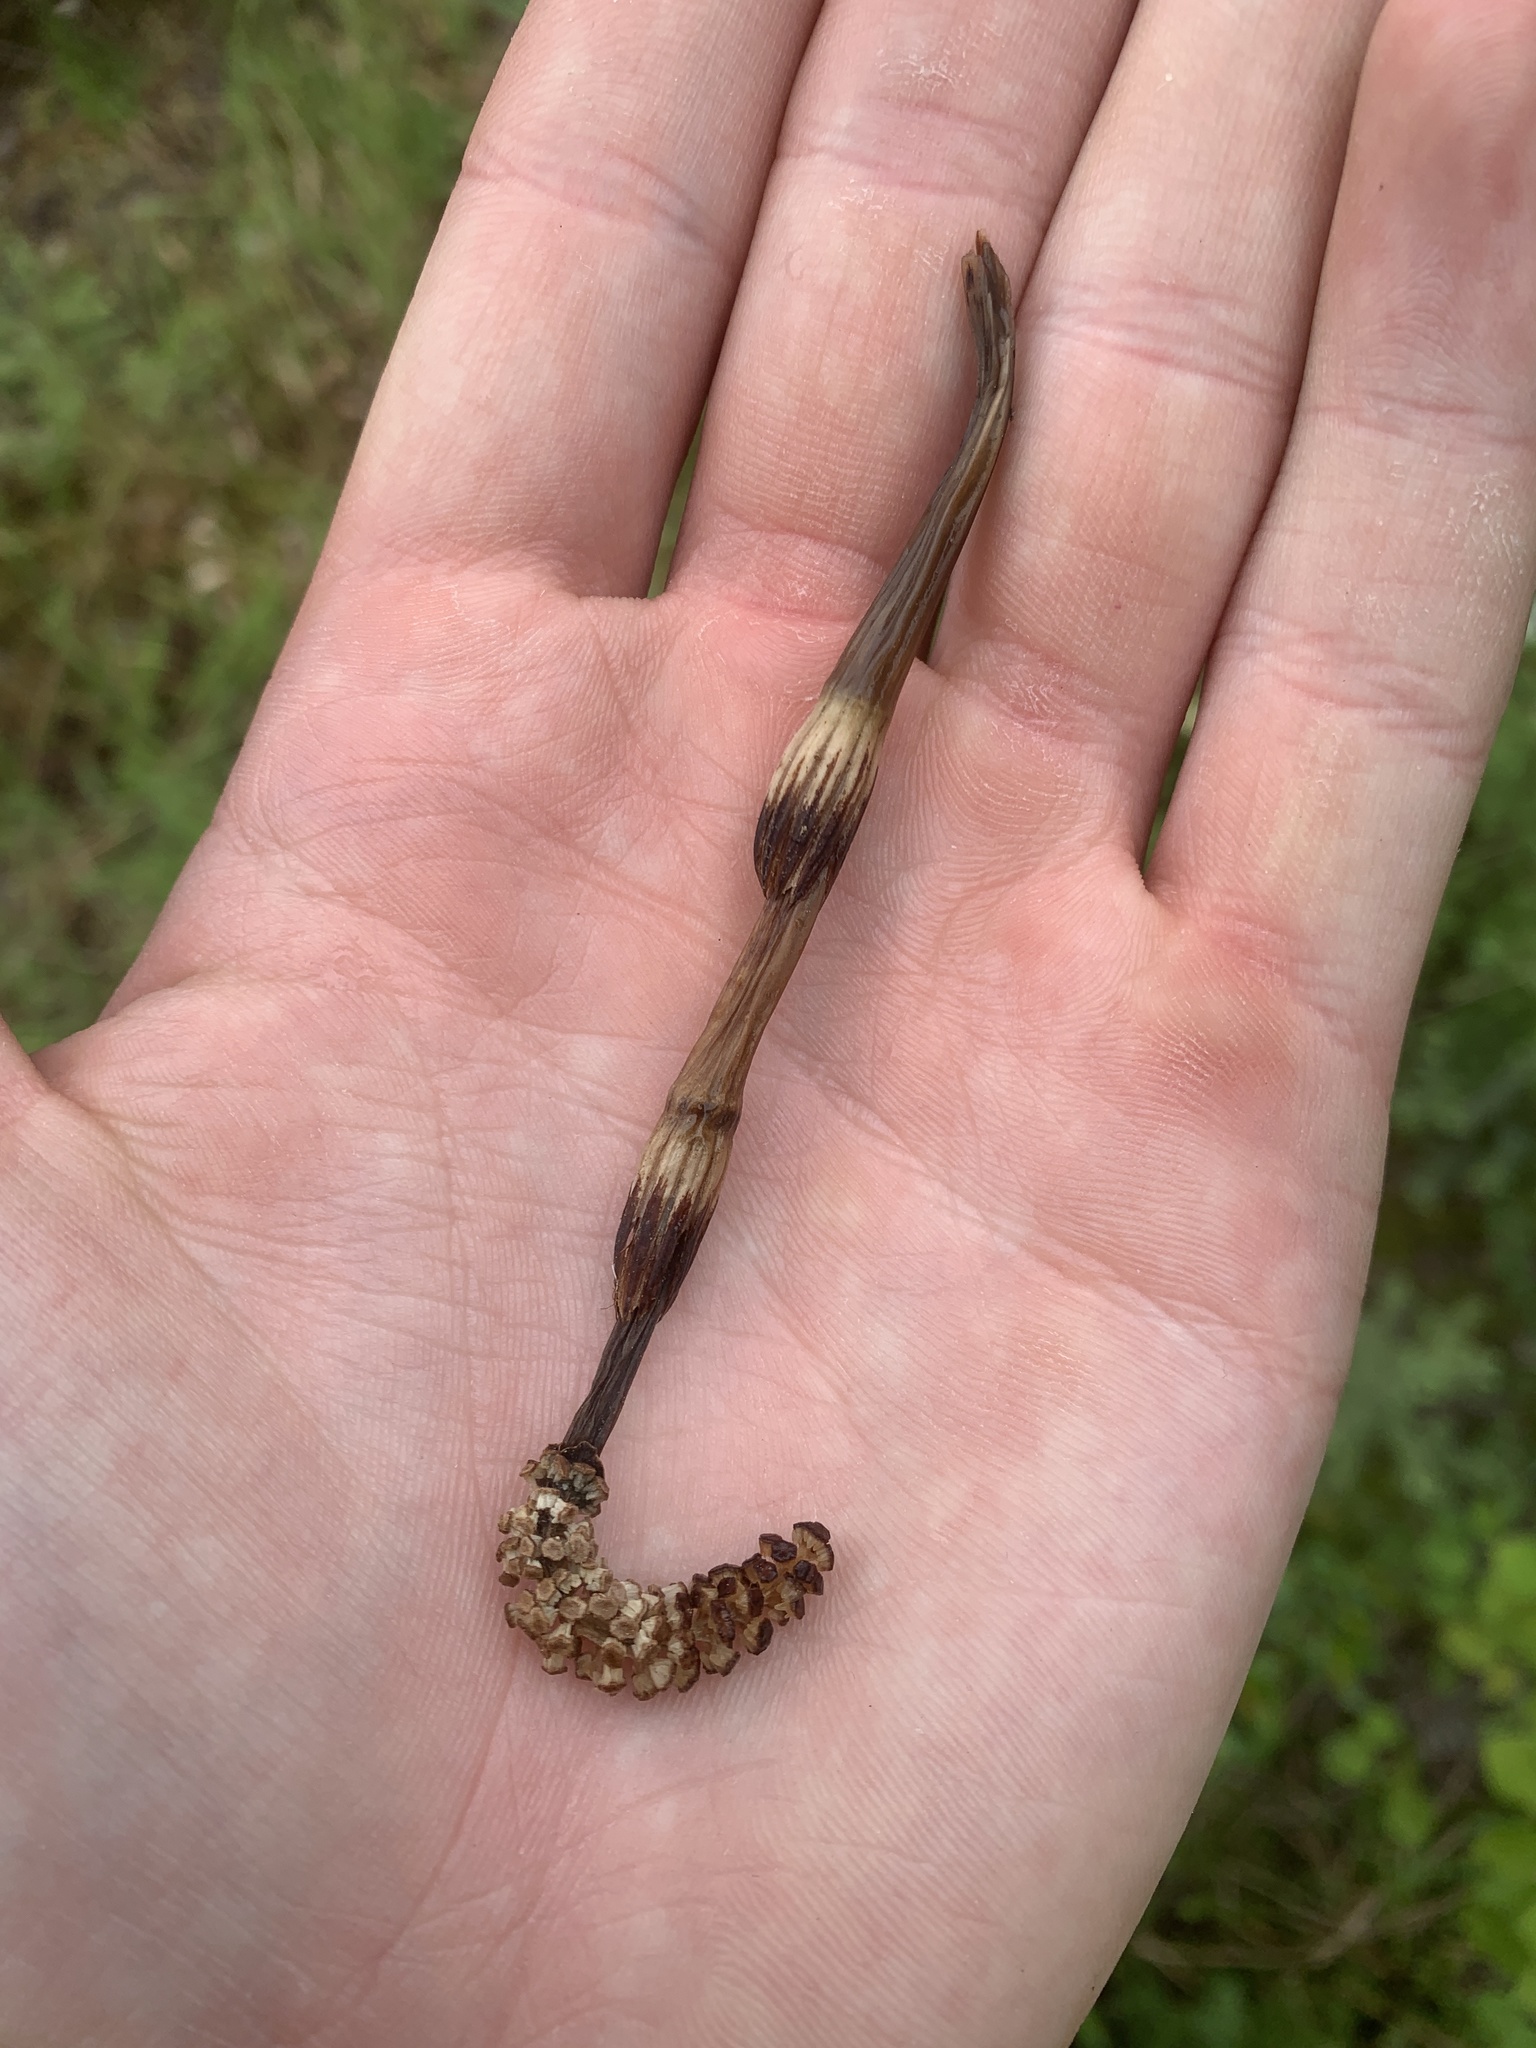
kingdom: Plantae
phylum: Tracheophyta
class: Polypodiopsida
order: Equisetales
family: Equisetaceae
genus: Equisetum
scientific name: Equisetum sylvaticum
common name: Wood horsetail
